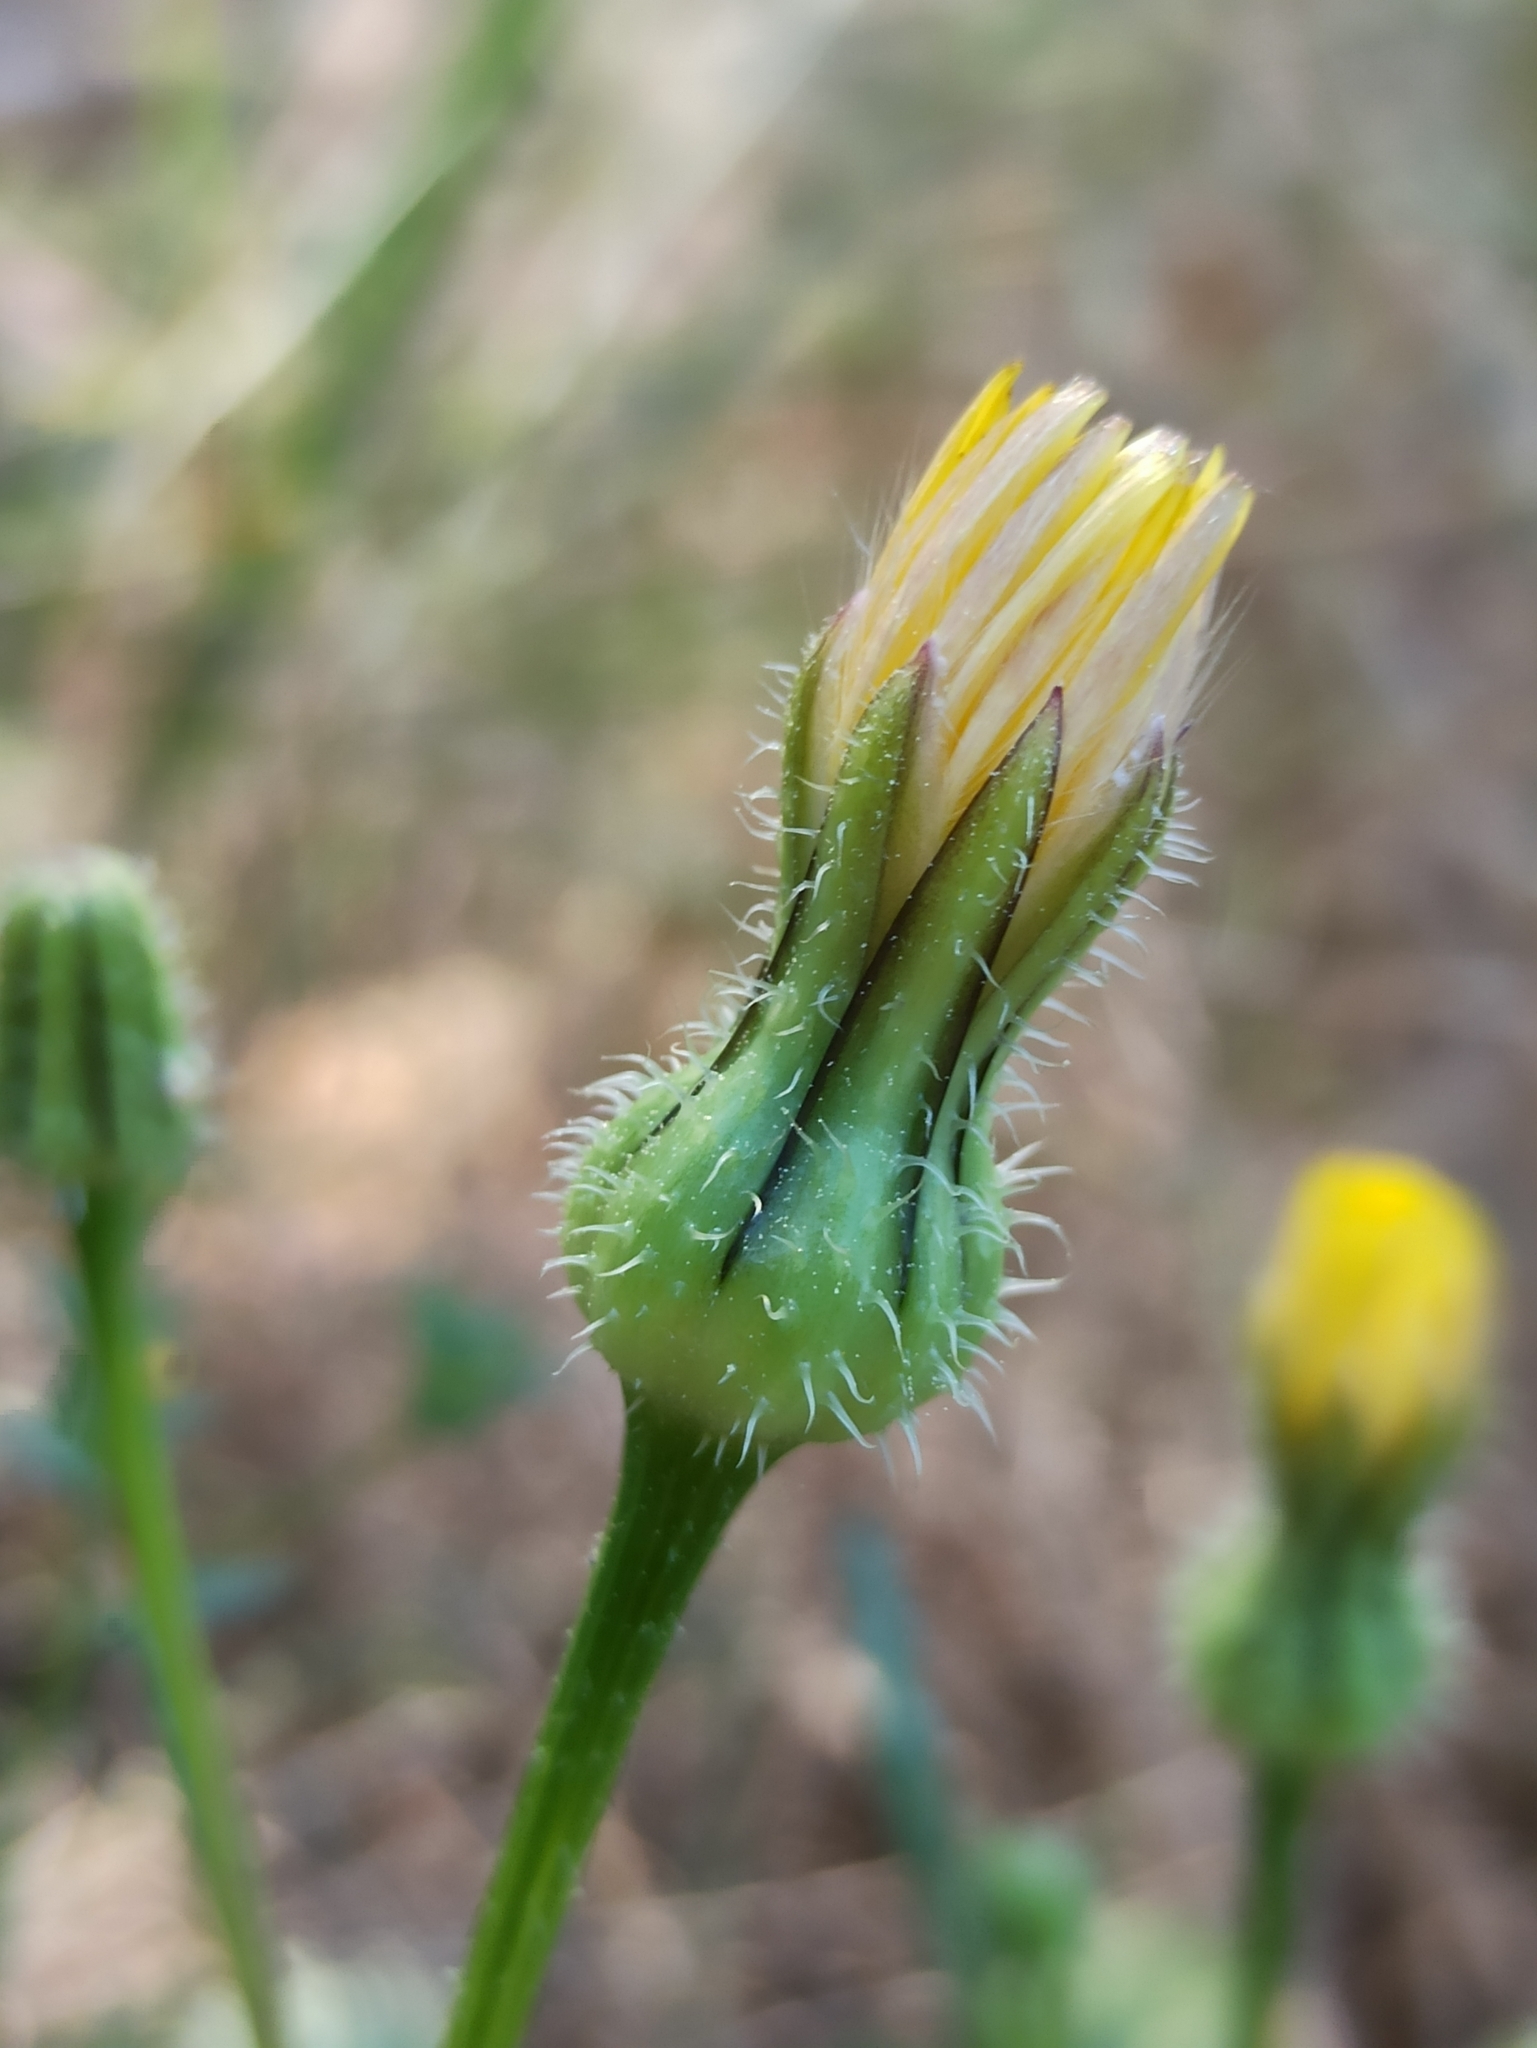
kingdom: Plantae
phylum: Tracheophyta
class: Magnoliopsida
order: Asterales
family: Asteraceae
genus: Urospermum
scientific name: Urospermum picroides
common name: False hawkbit
